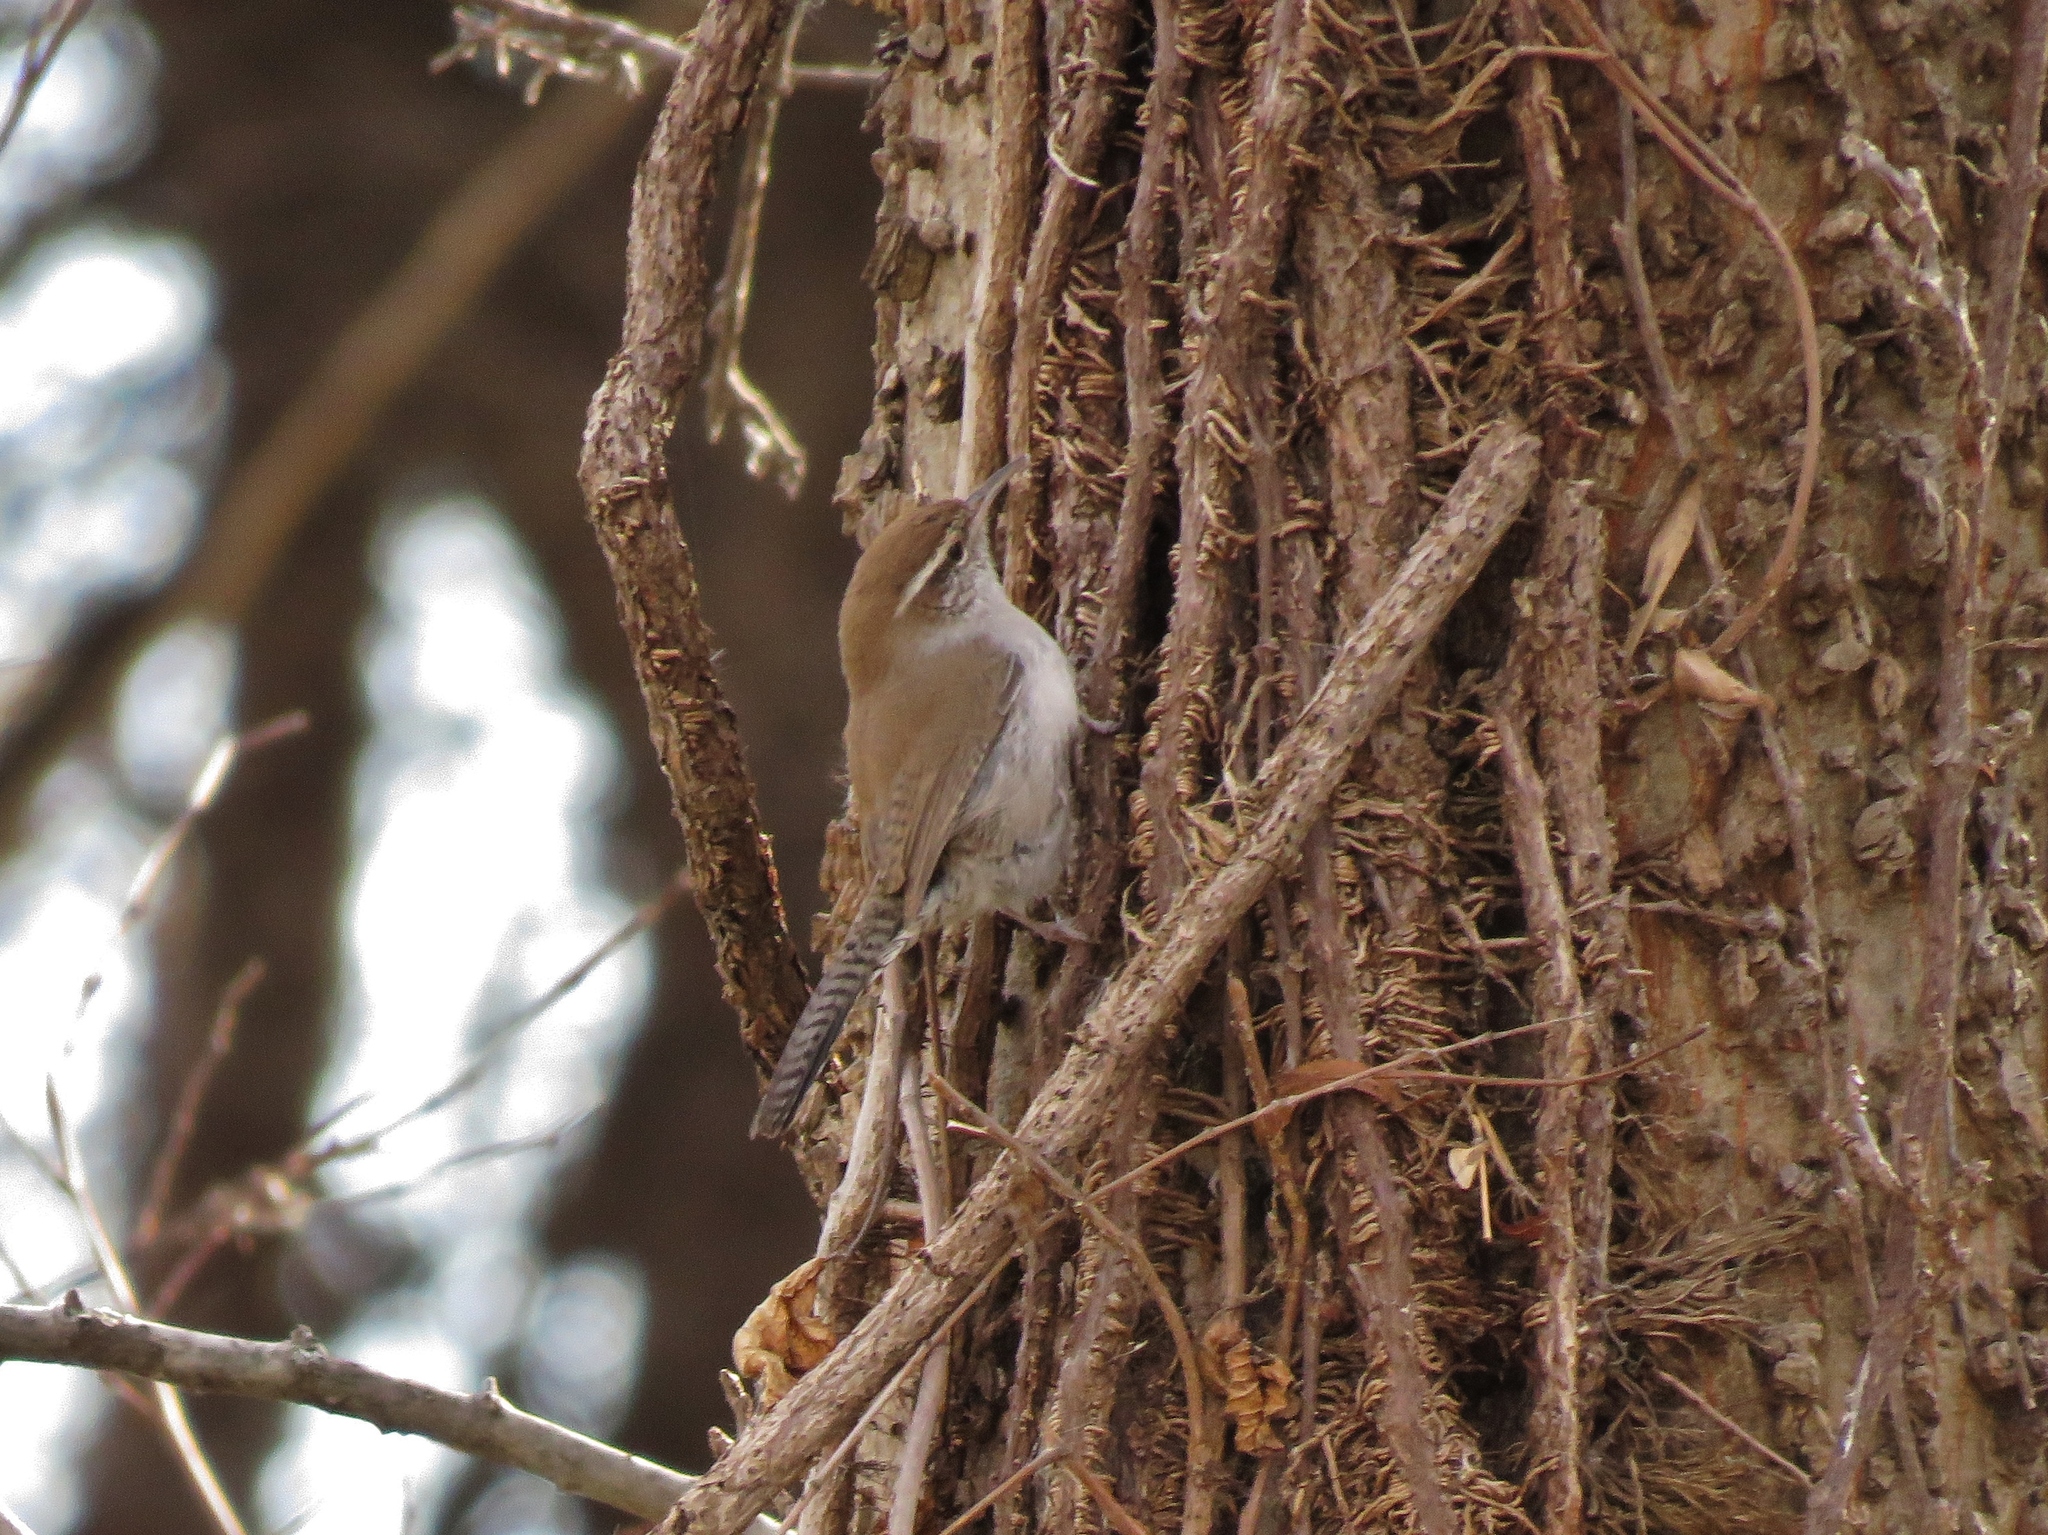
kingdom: Animalia
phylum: Chordata
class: Aves
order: Passeriformes
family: Troglodytidae
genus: Thryomanes
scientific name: Thryomanes bewickii
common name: Bewick's wren
